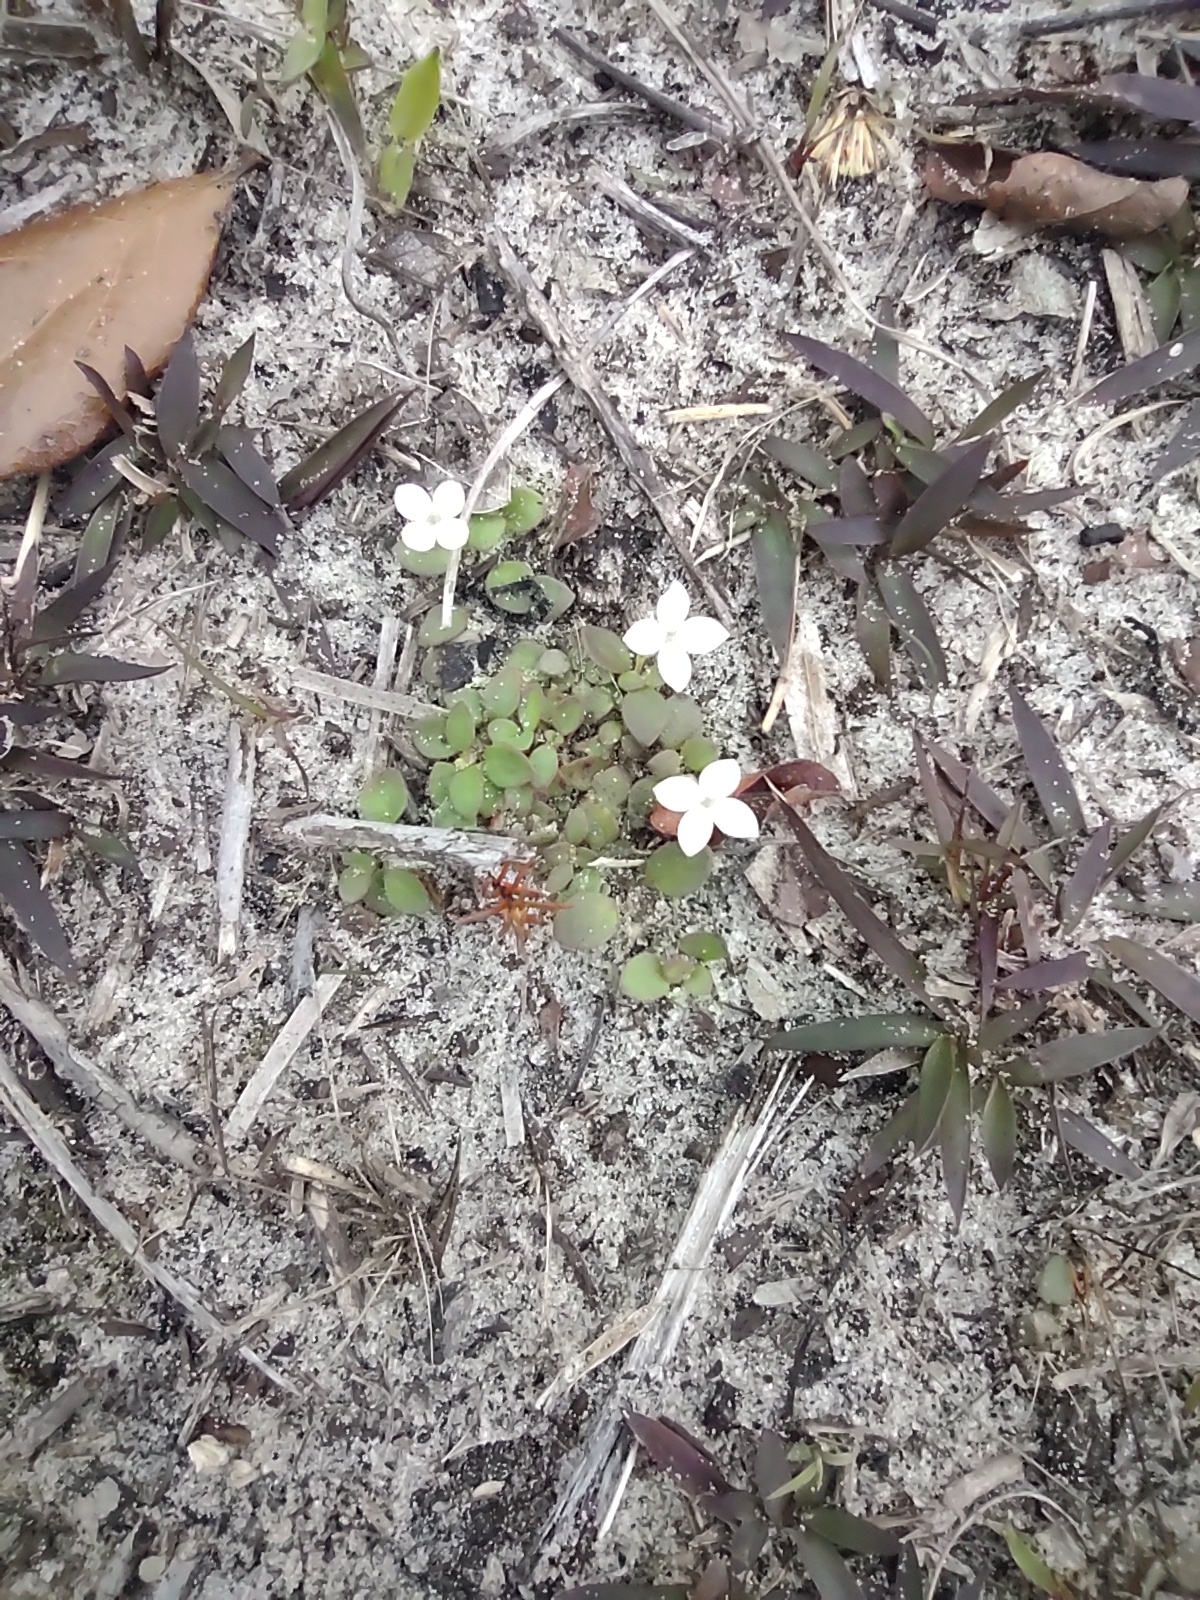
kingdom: Plantae
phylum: Tracheophyta
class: Magnoliopsida
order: Gentianales
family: Rubiaceae
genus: Houstonia
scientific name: Houstonia procumbens
